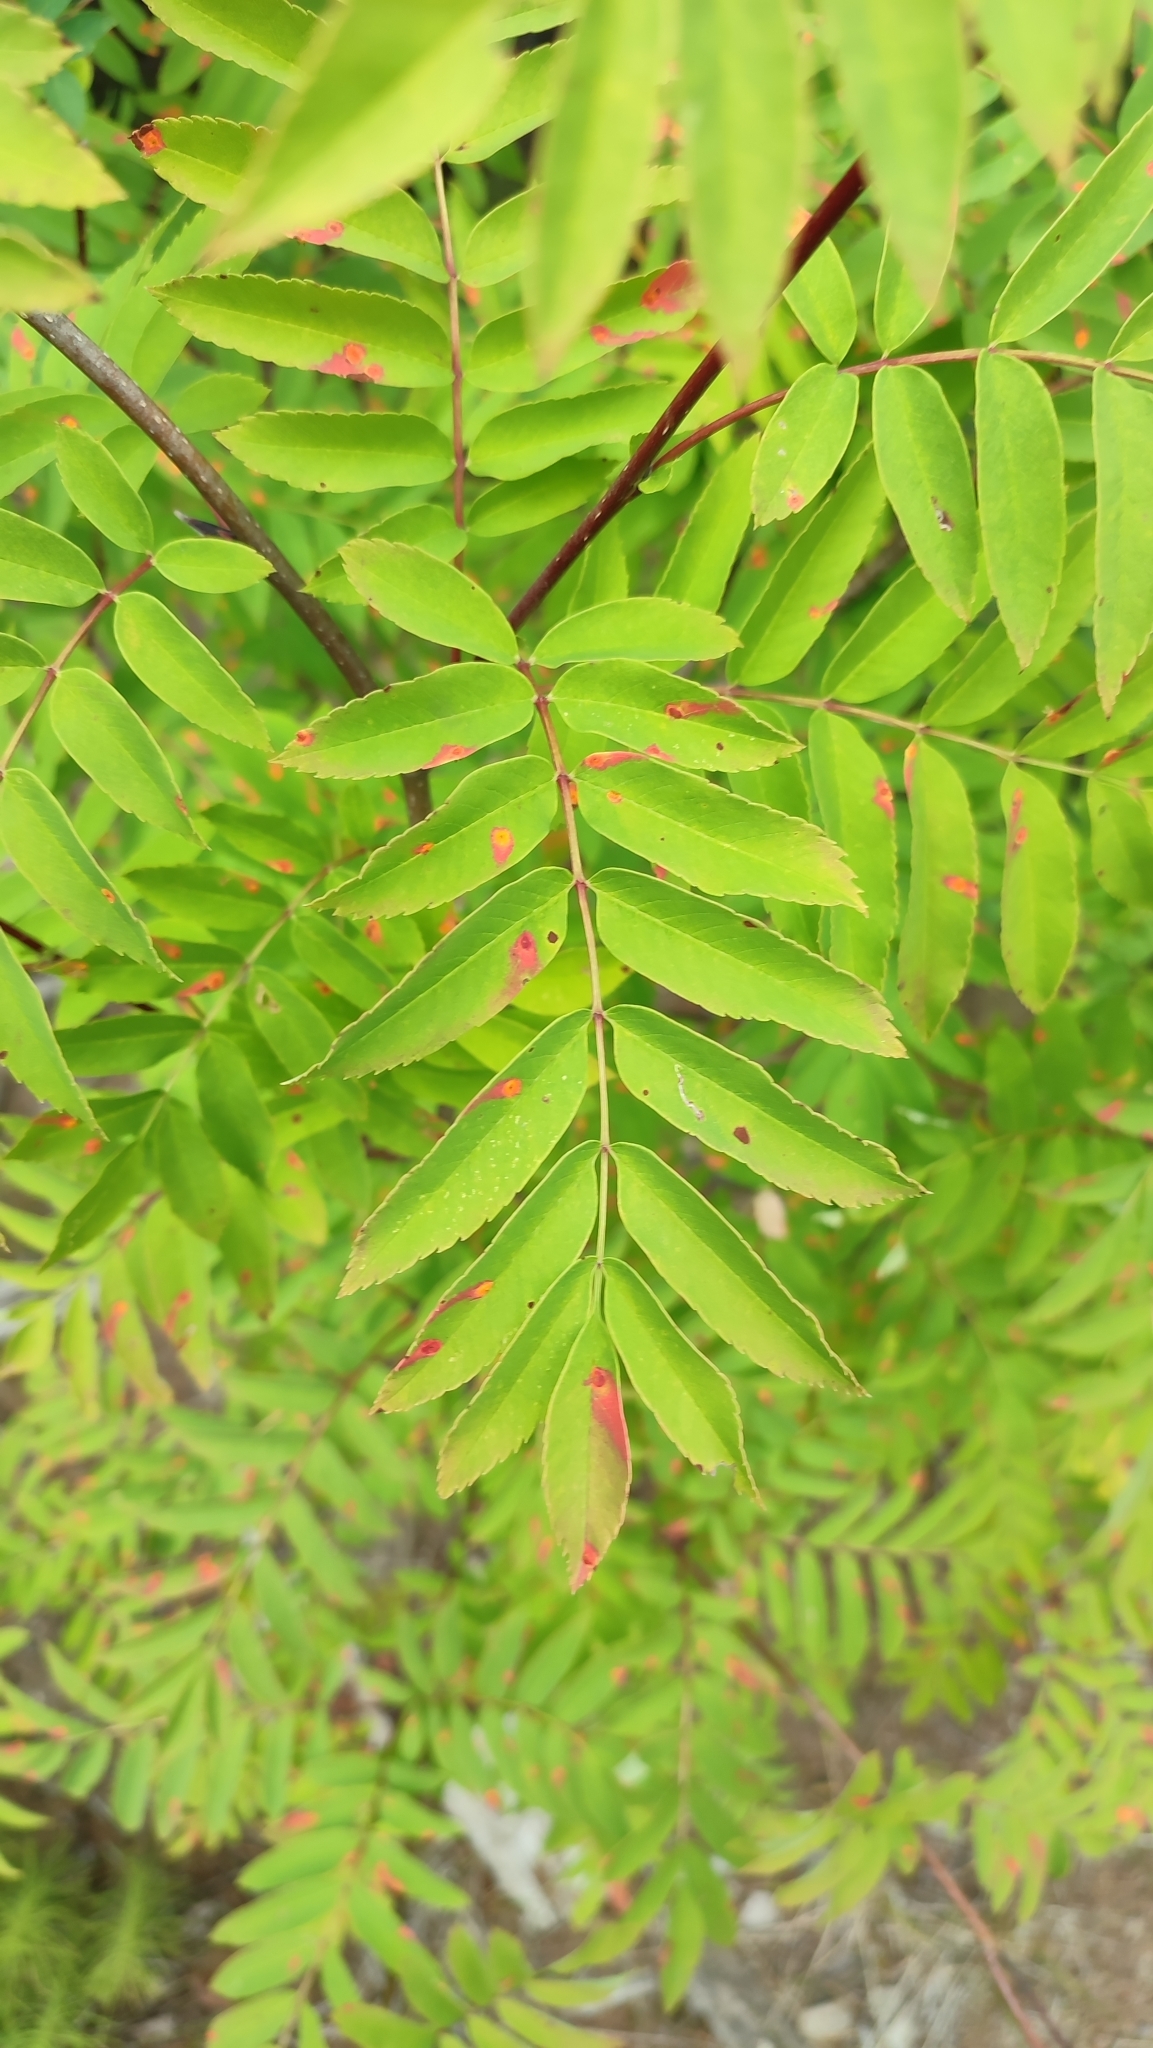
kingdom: Plantae
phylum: Tracheophyta
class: Magnoliopsida
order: Rosales
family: Rosaceae
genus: Sorbus
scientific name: Sorbus aucuparia
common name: Rowan
